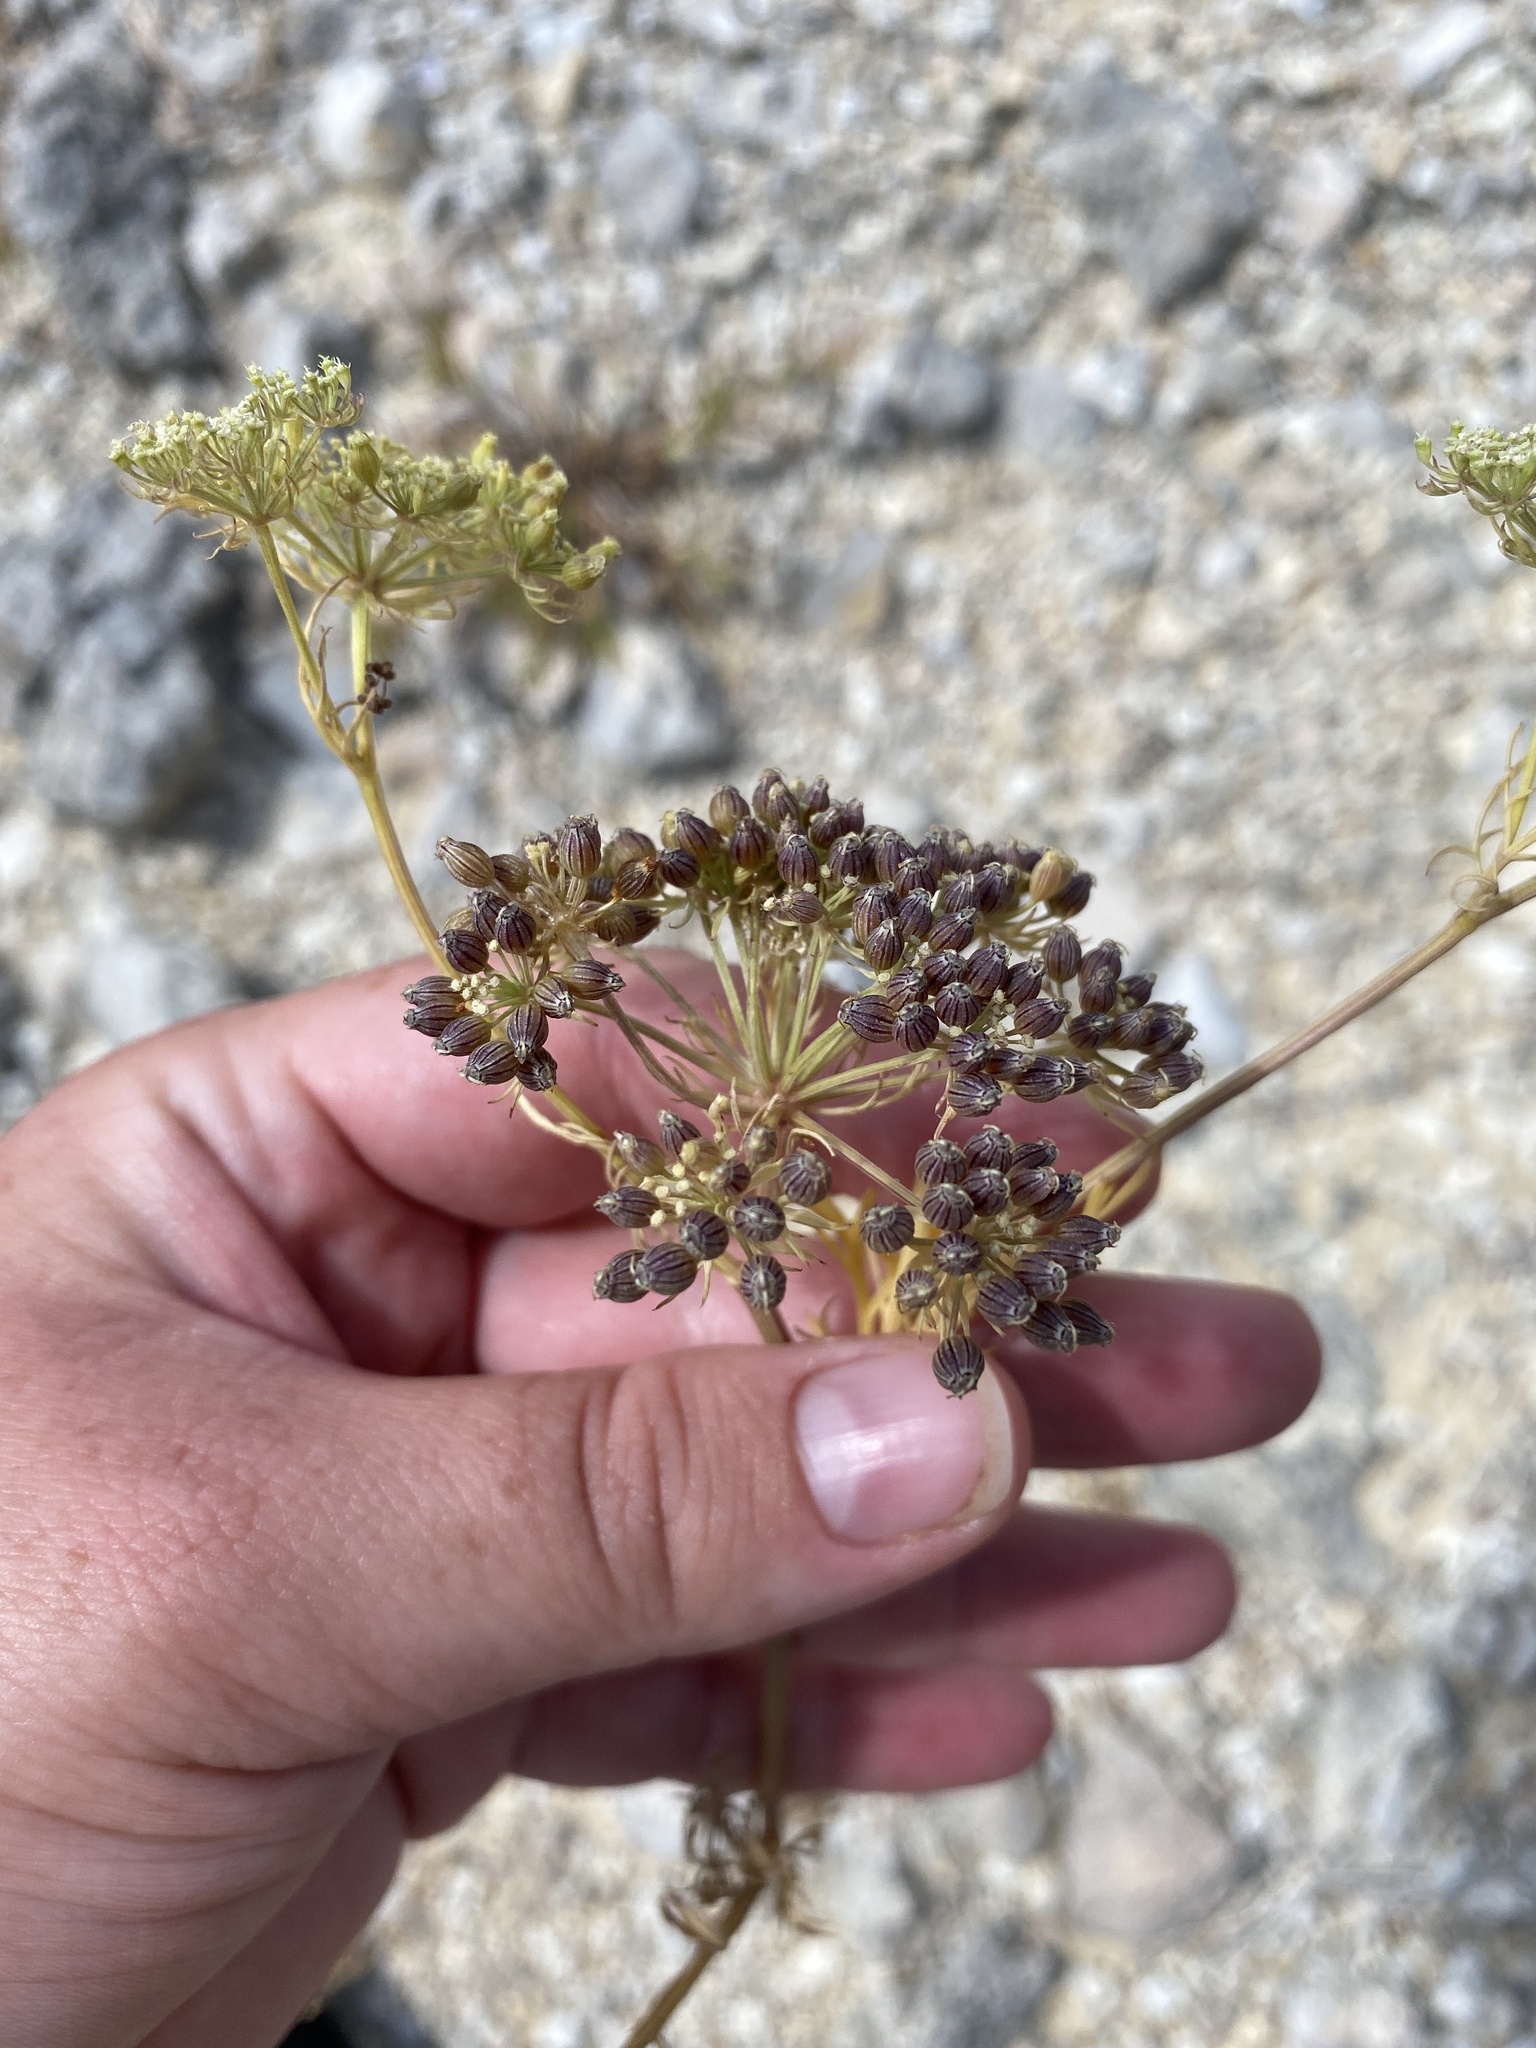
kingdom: Plantae
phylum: Tracheophyta
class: Magnoliopsida
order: Apiales
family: Apiaceae
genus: Daucosma
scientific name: Daucosma laciniatum
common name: Meadow-parasol
